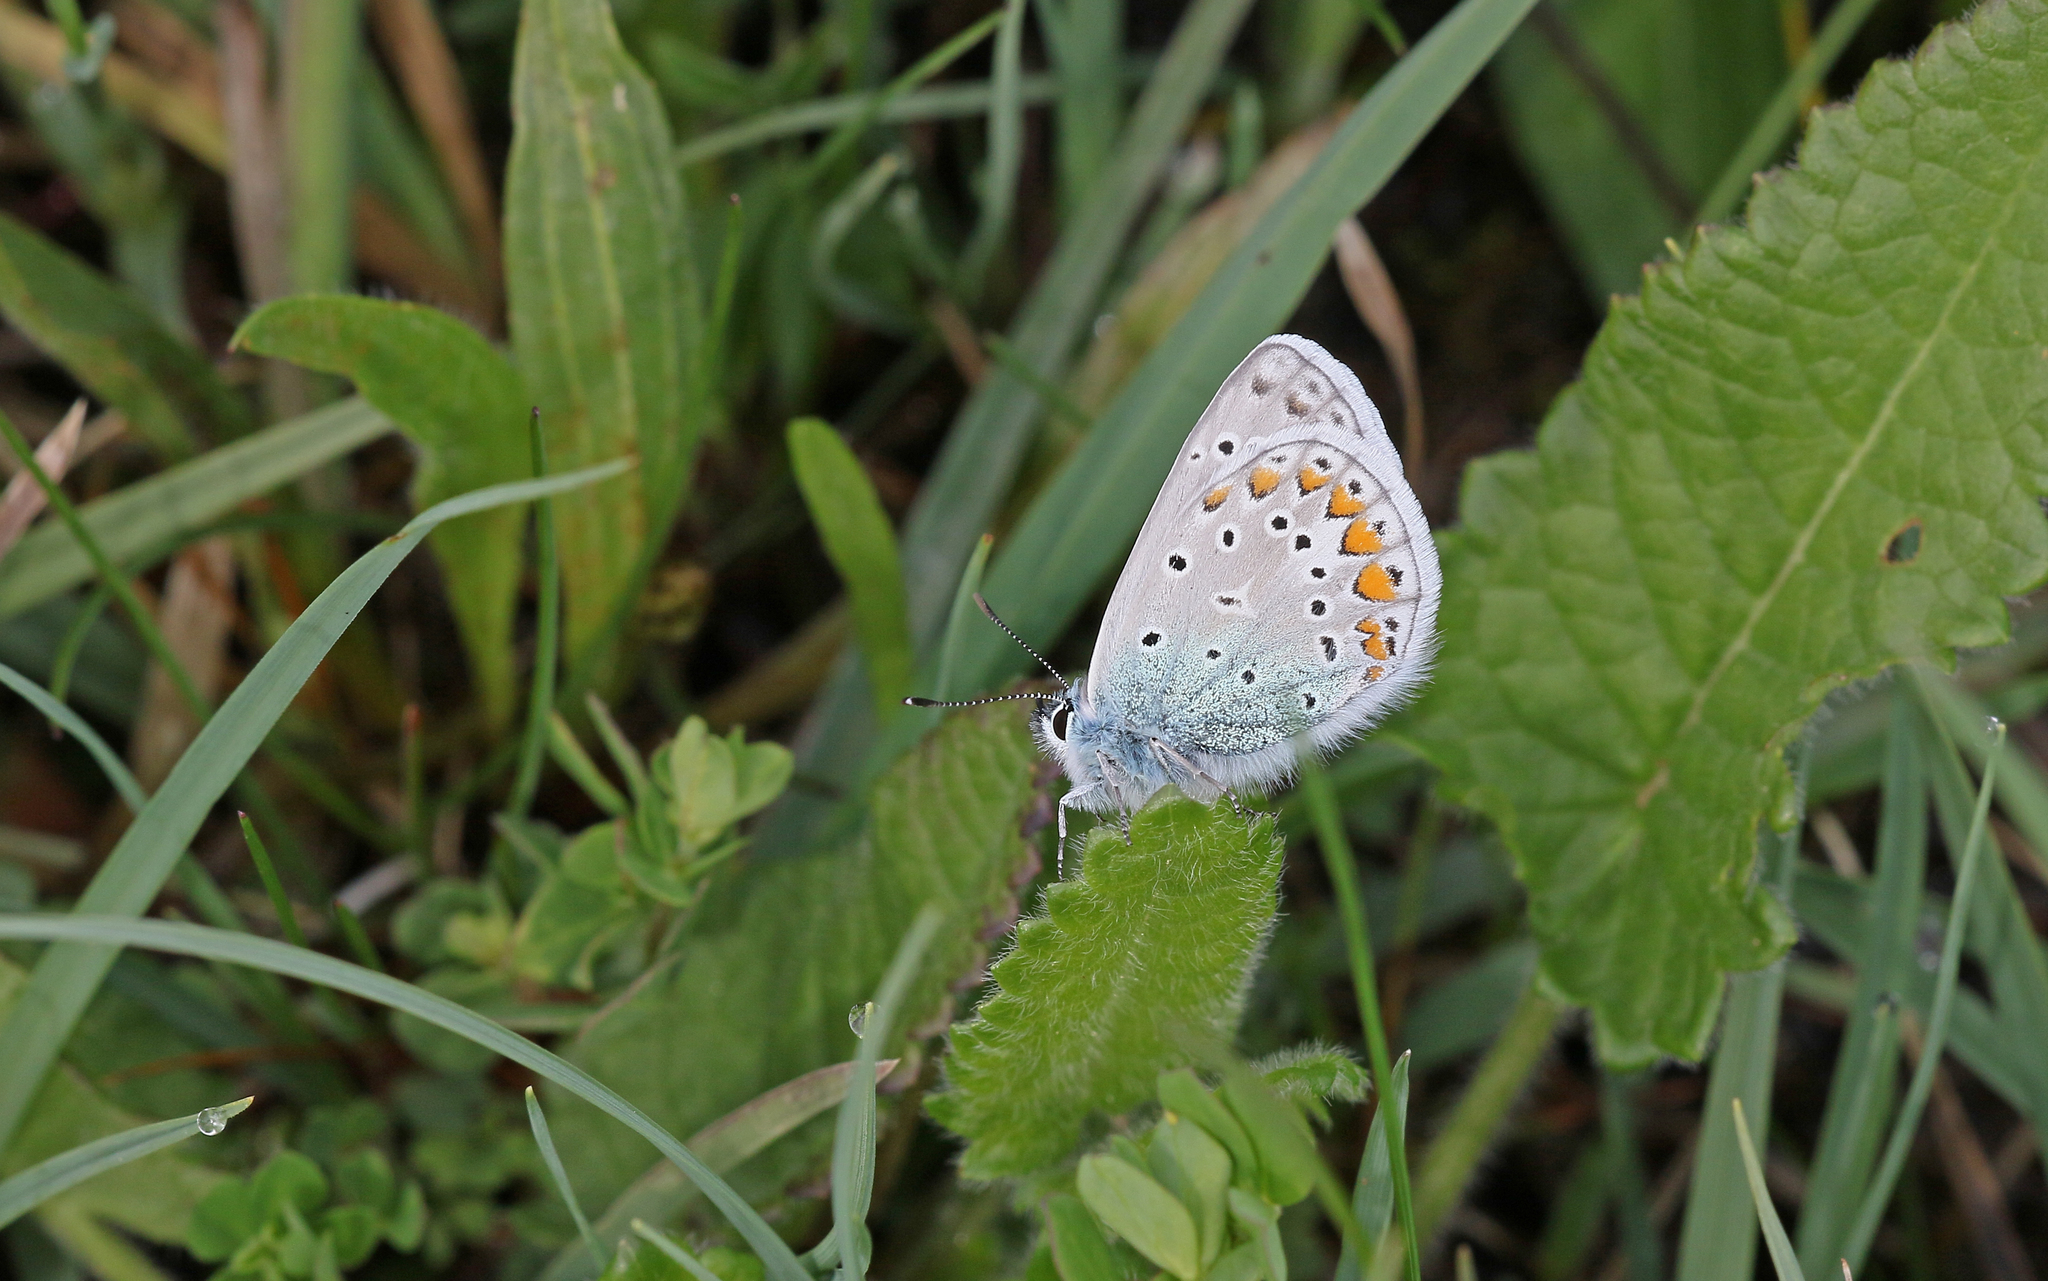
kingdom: Animalia
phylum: Arthropoda
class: Insecta
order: Lepidoptera
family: Lycaenidae
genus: Polyommatus
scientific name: Polyommatus icarus
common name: Common blue
